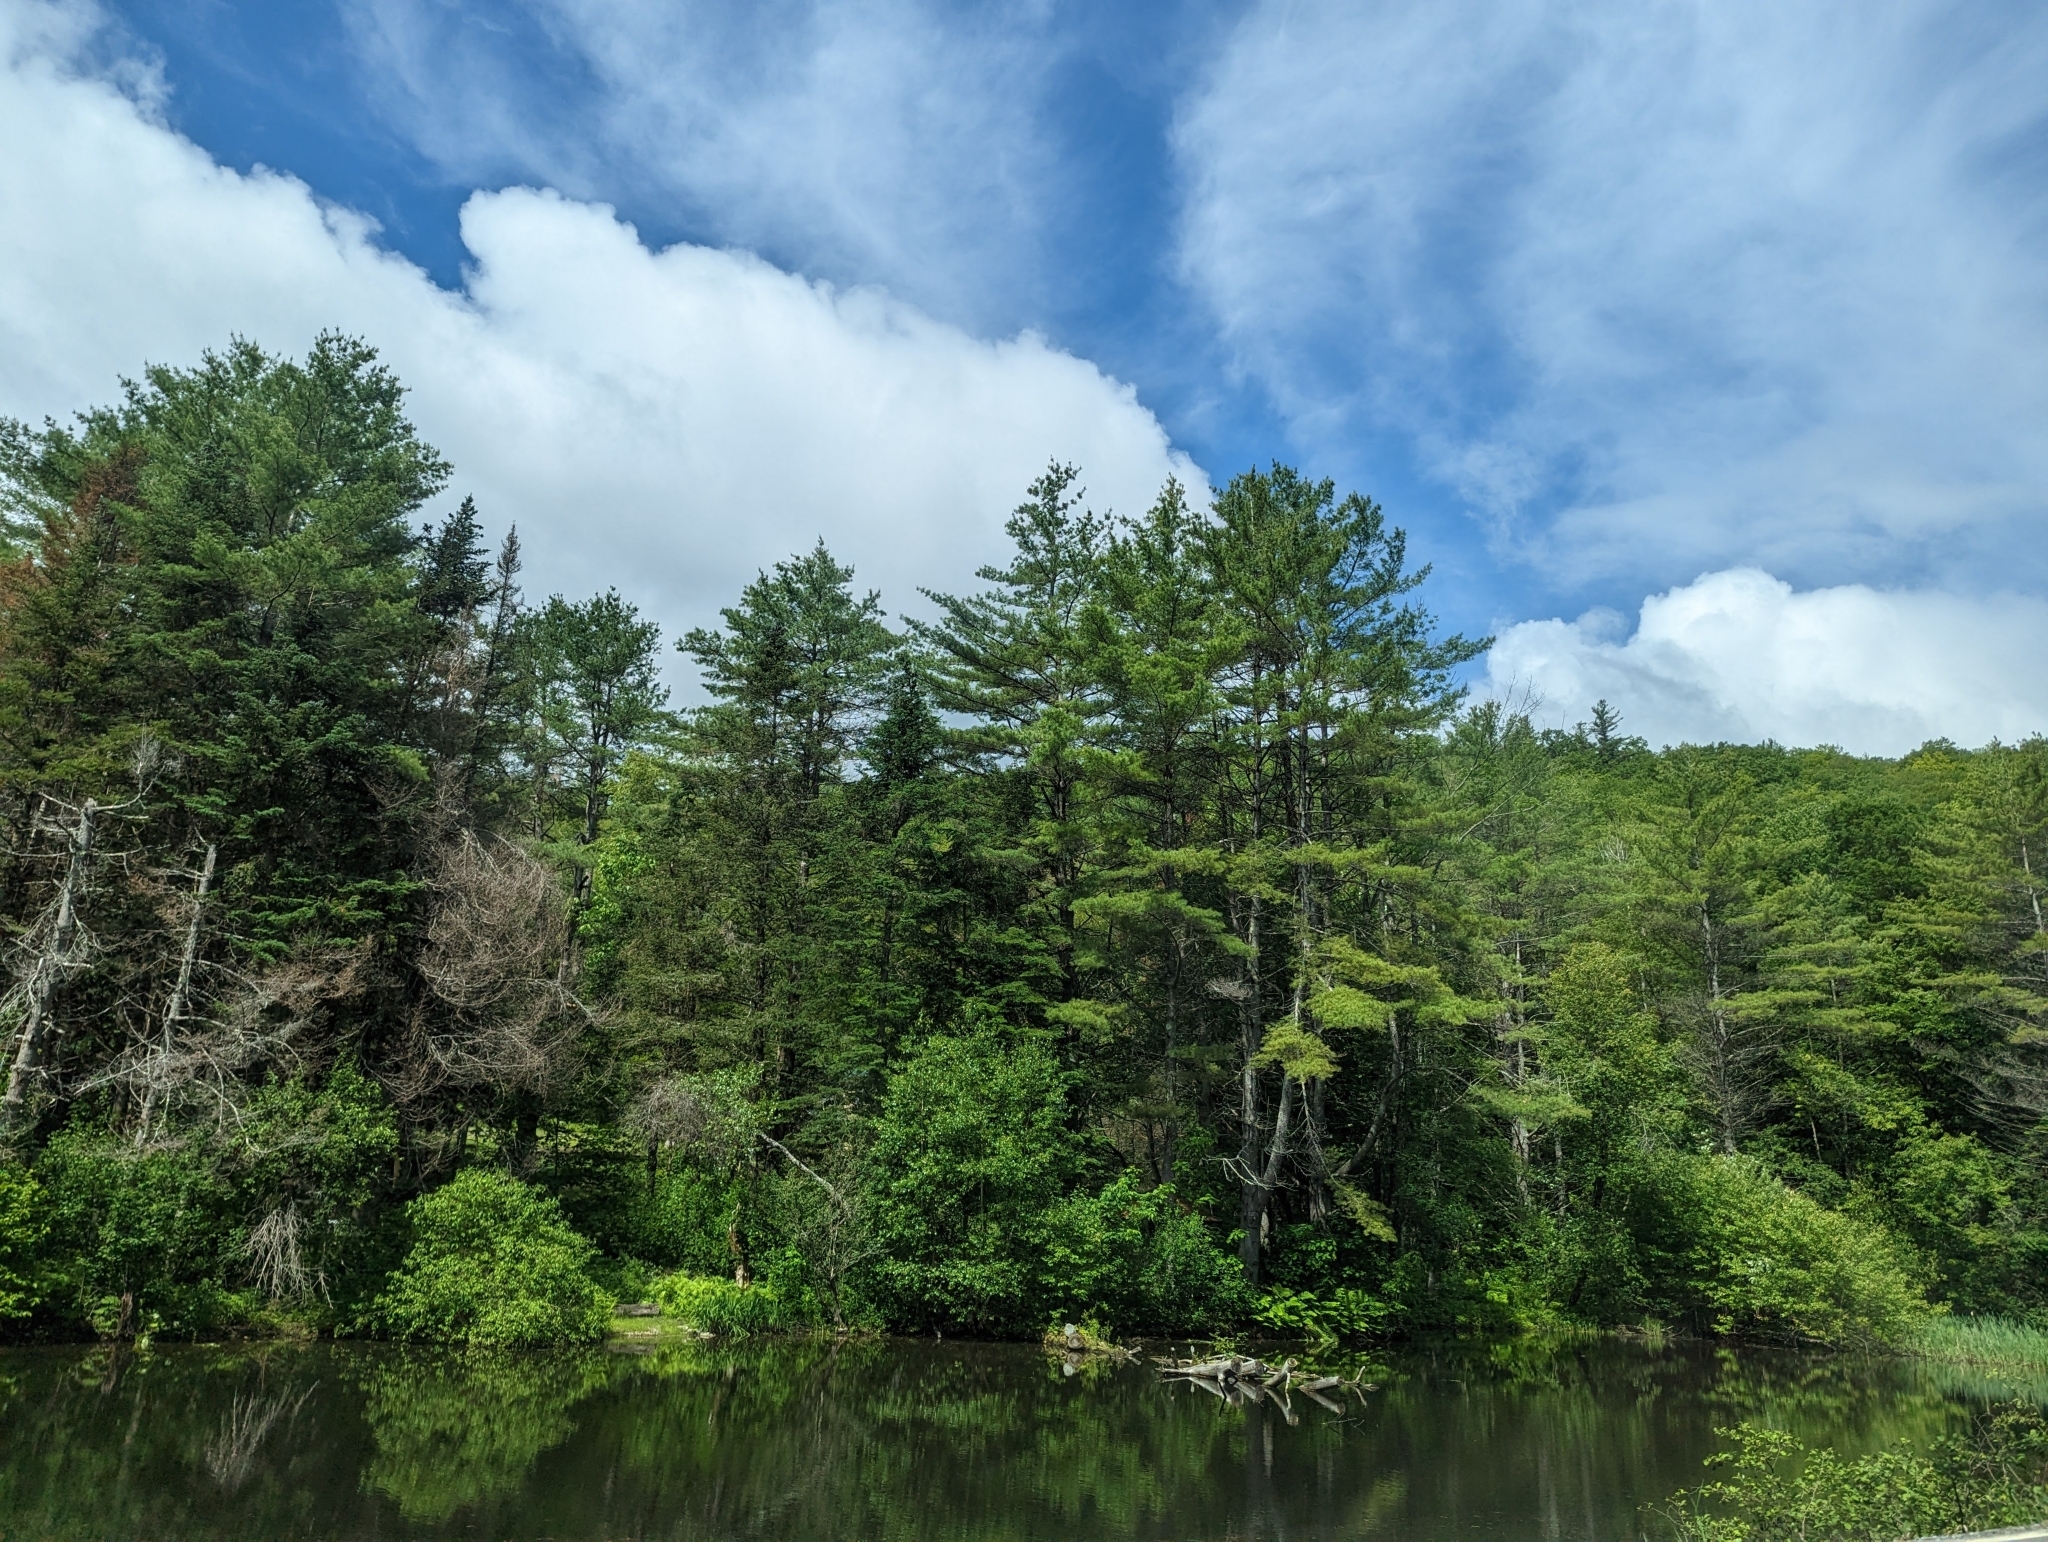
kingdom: Plantae
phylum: Tracheophyta
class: Pinopsida
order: Pinales
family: Pinaceae
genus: Pinus
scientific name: Pinus strobus
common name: Weymouth pine
